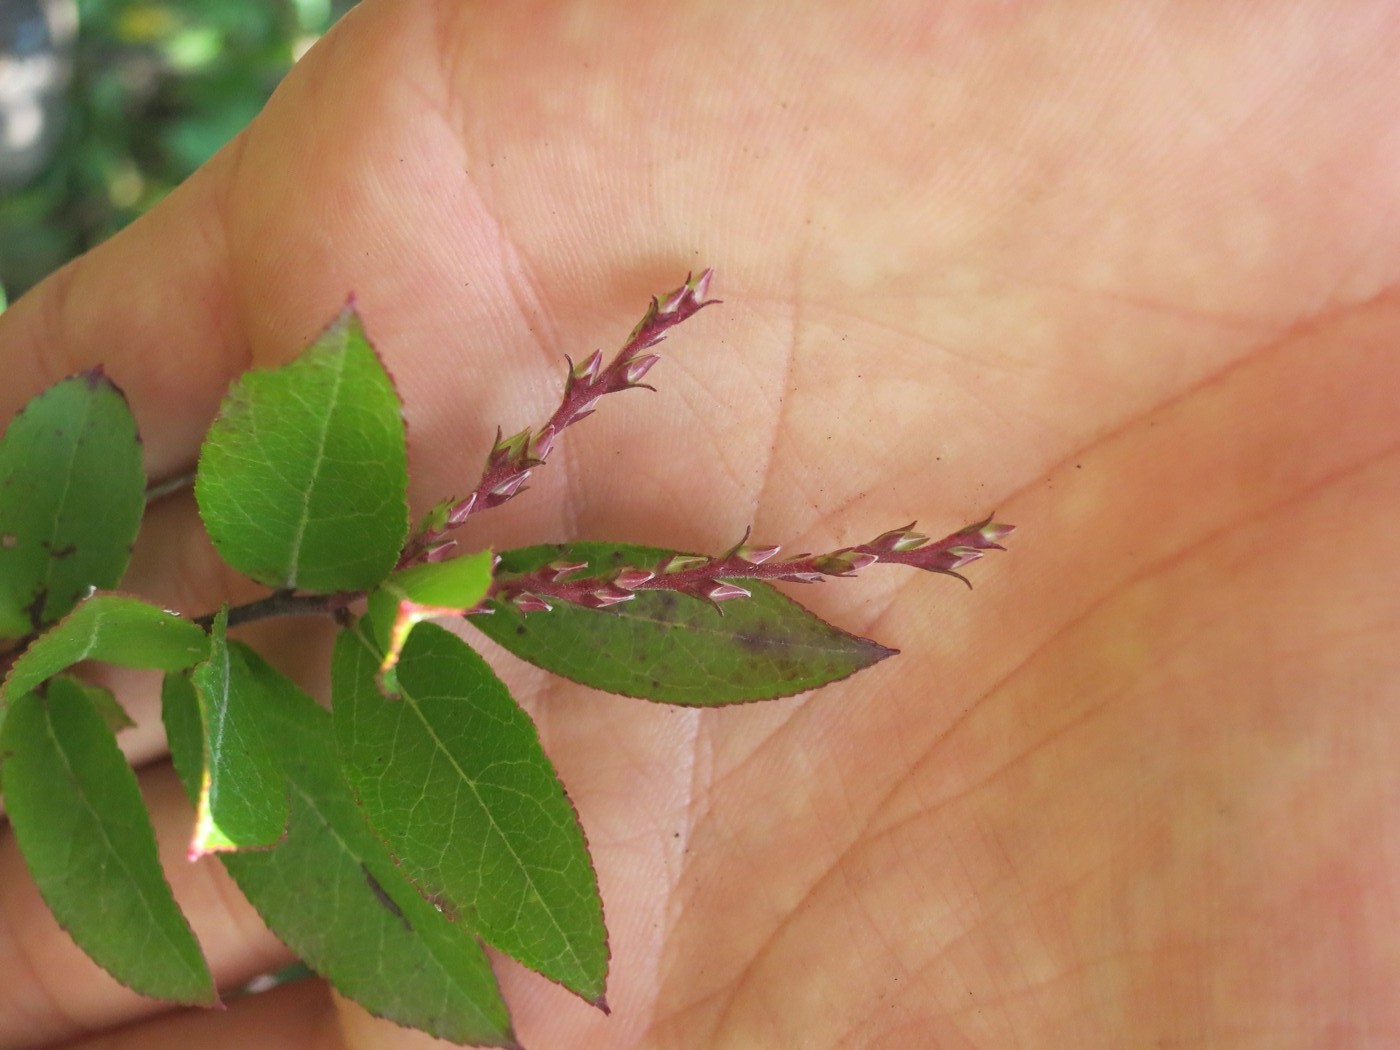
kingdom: Plantae
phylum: Tracheophyta
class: Magnoliopsida
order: Ericales
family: Ericaceae
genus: Eubotrys
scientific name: Eubotrys racemosa
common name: Fetterbush
